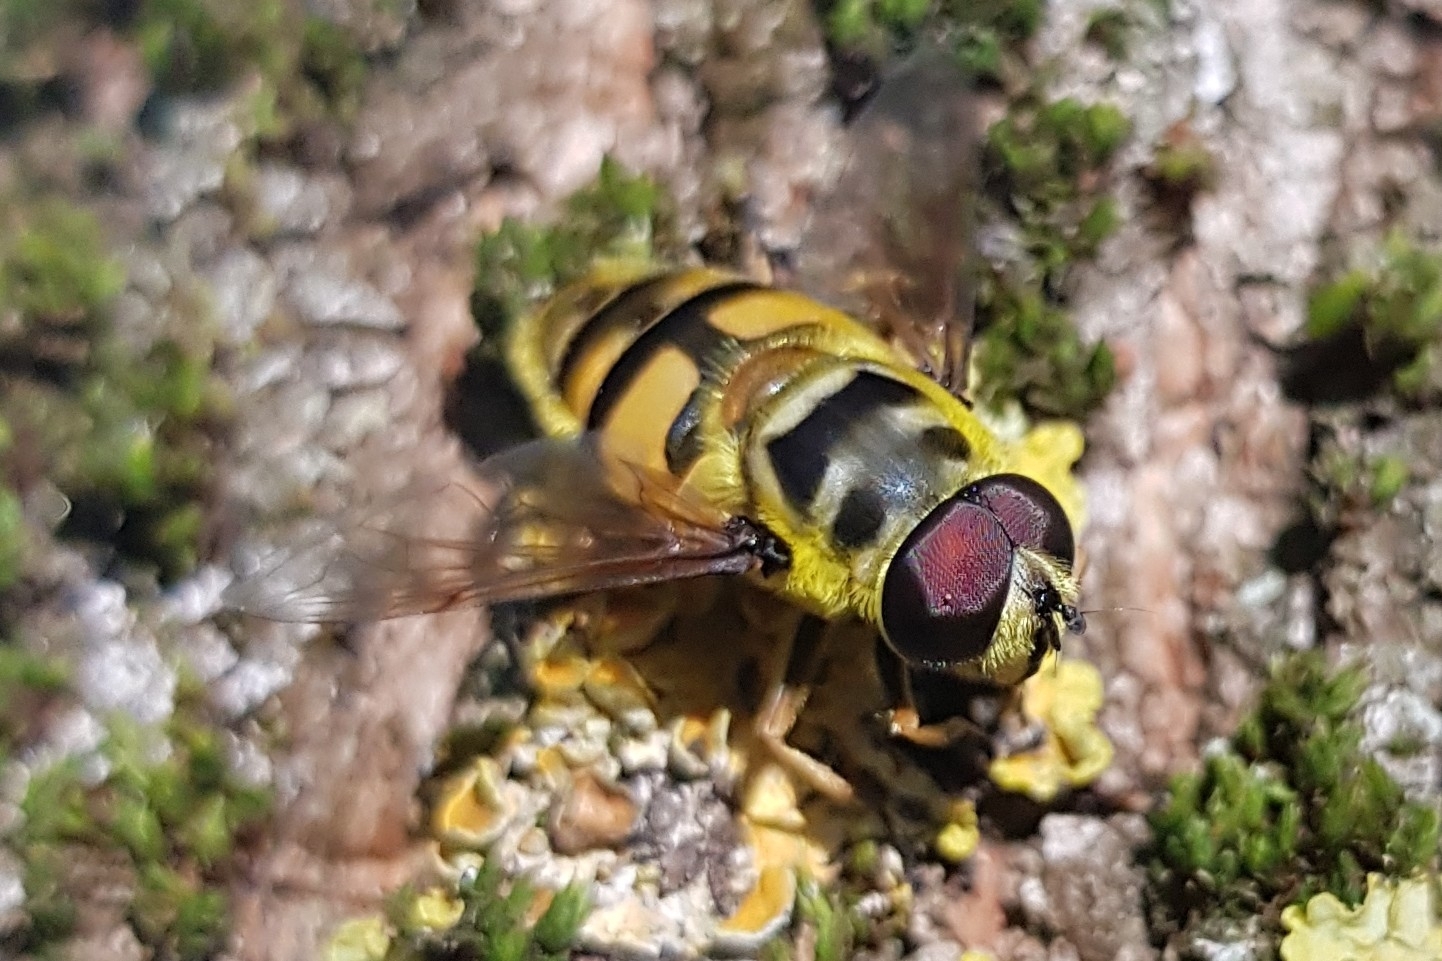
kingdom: Animalia
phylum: Arthropoda
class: Insecta
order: Diptera
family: Syrphidae
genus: Myathropa
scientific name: Myathropa florea
